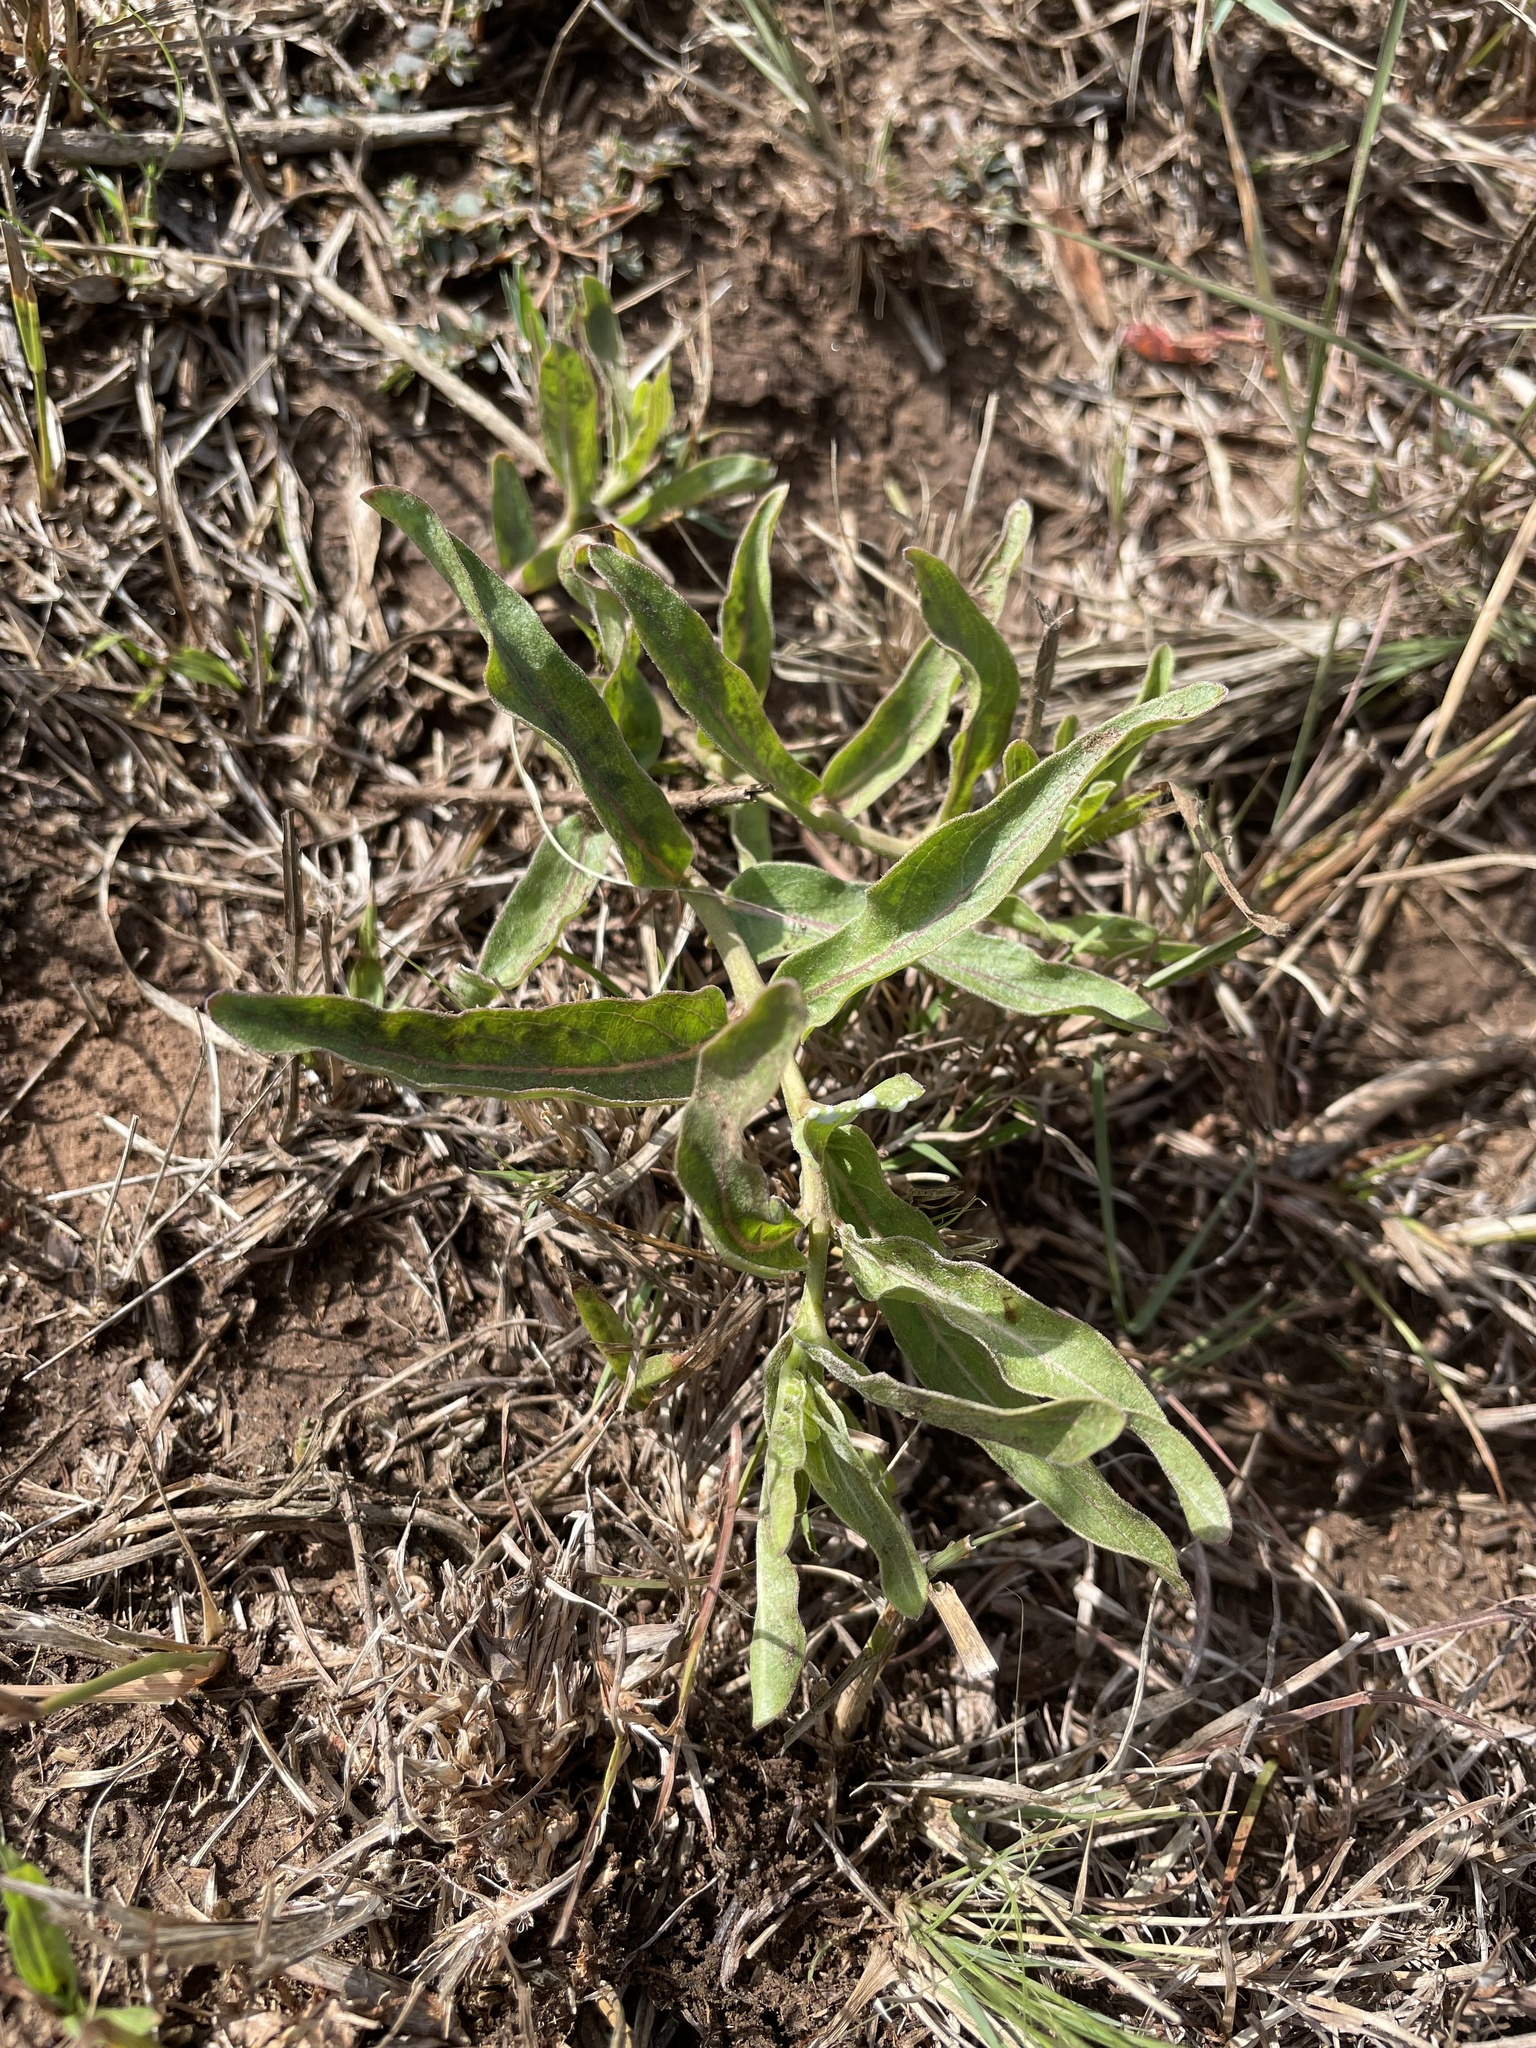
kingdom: Plantae
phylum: Tracheophyta
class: Magnoliopsida
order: Gentianales
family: Apocynaceae
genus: Asclepias
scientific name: Asclepias asperula
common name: Antelope horns
